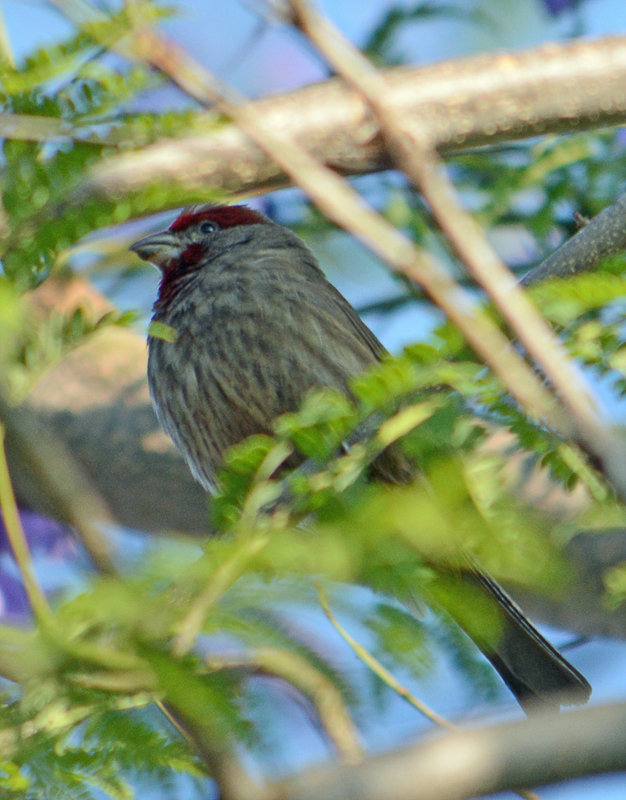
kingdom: Animalia
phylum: Chordata
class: Aves
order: Passeriformes
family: Fringillidae
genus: Haemorhous
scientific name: Haemorhous mexicanus
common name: House finch
